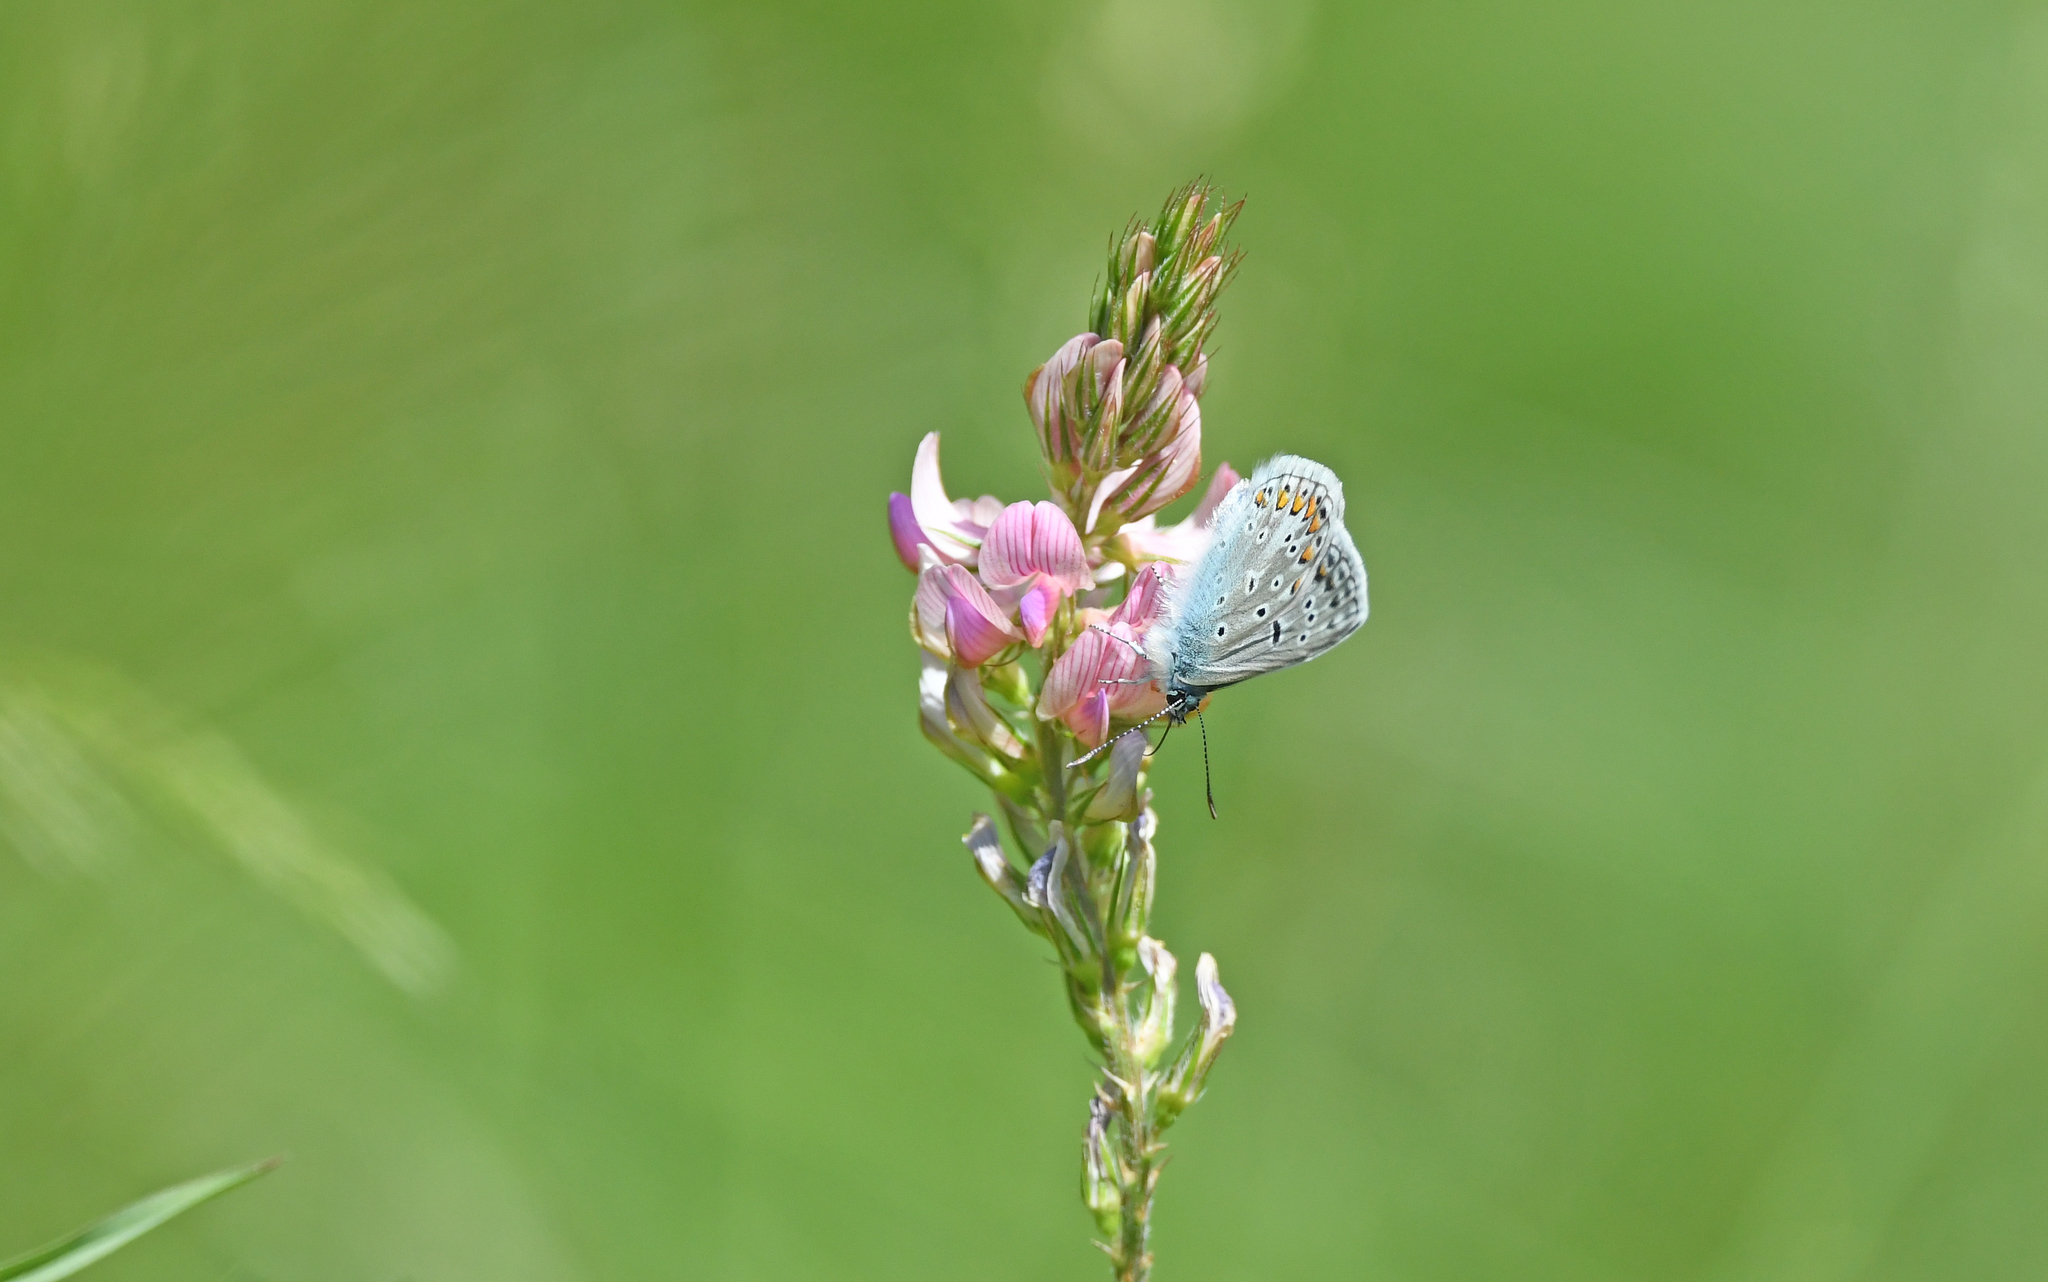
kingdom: Animalia
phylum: Arthropoda
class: Insecta
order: Lepidoptera
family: Lycaenidae
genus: Polyommatus
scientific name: Polyommatus icarus
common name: Common blue
